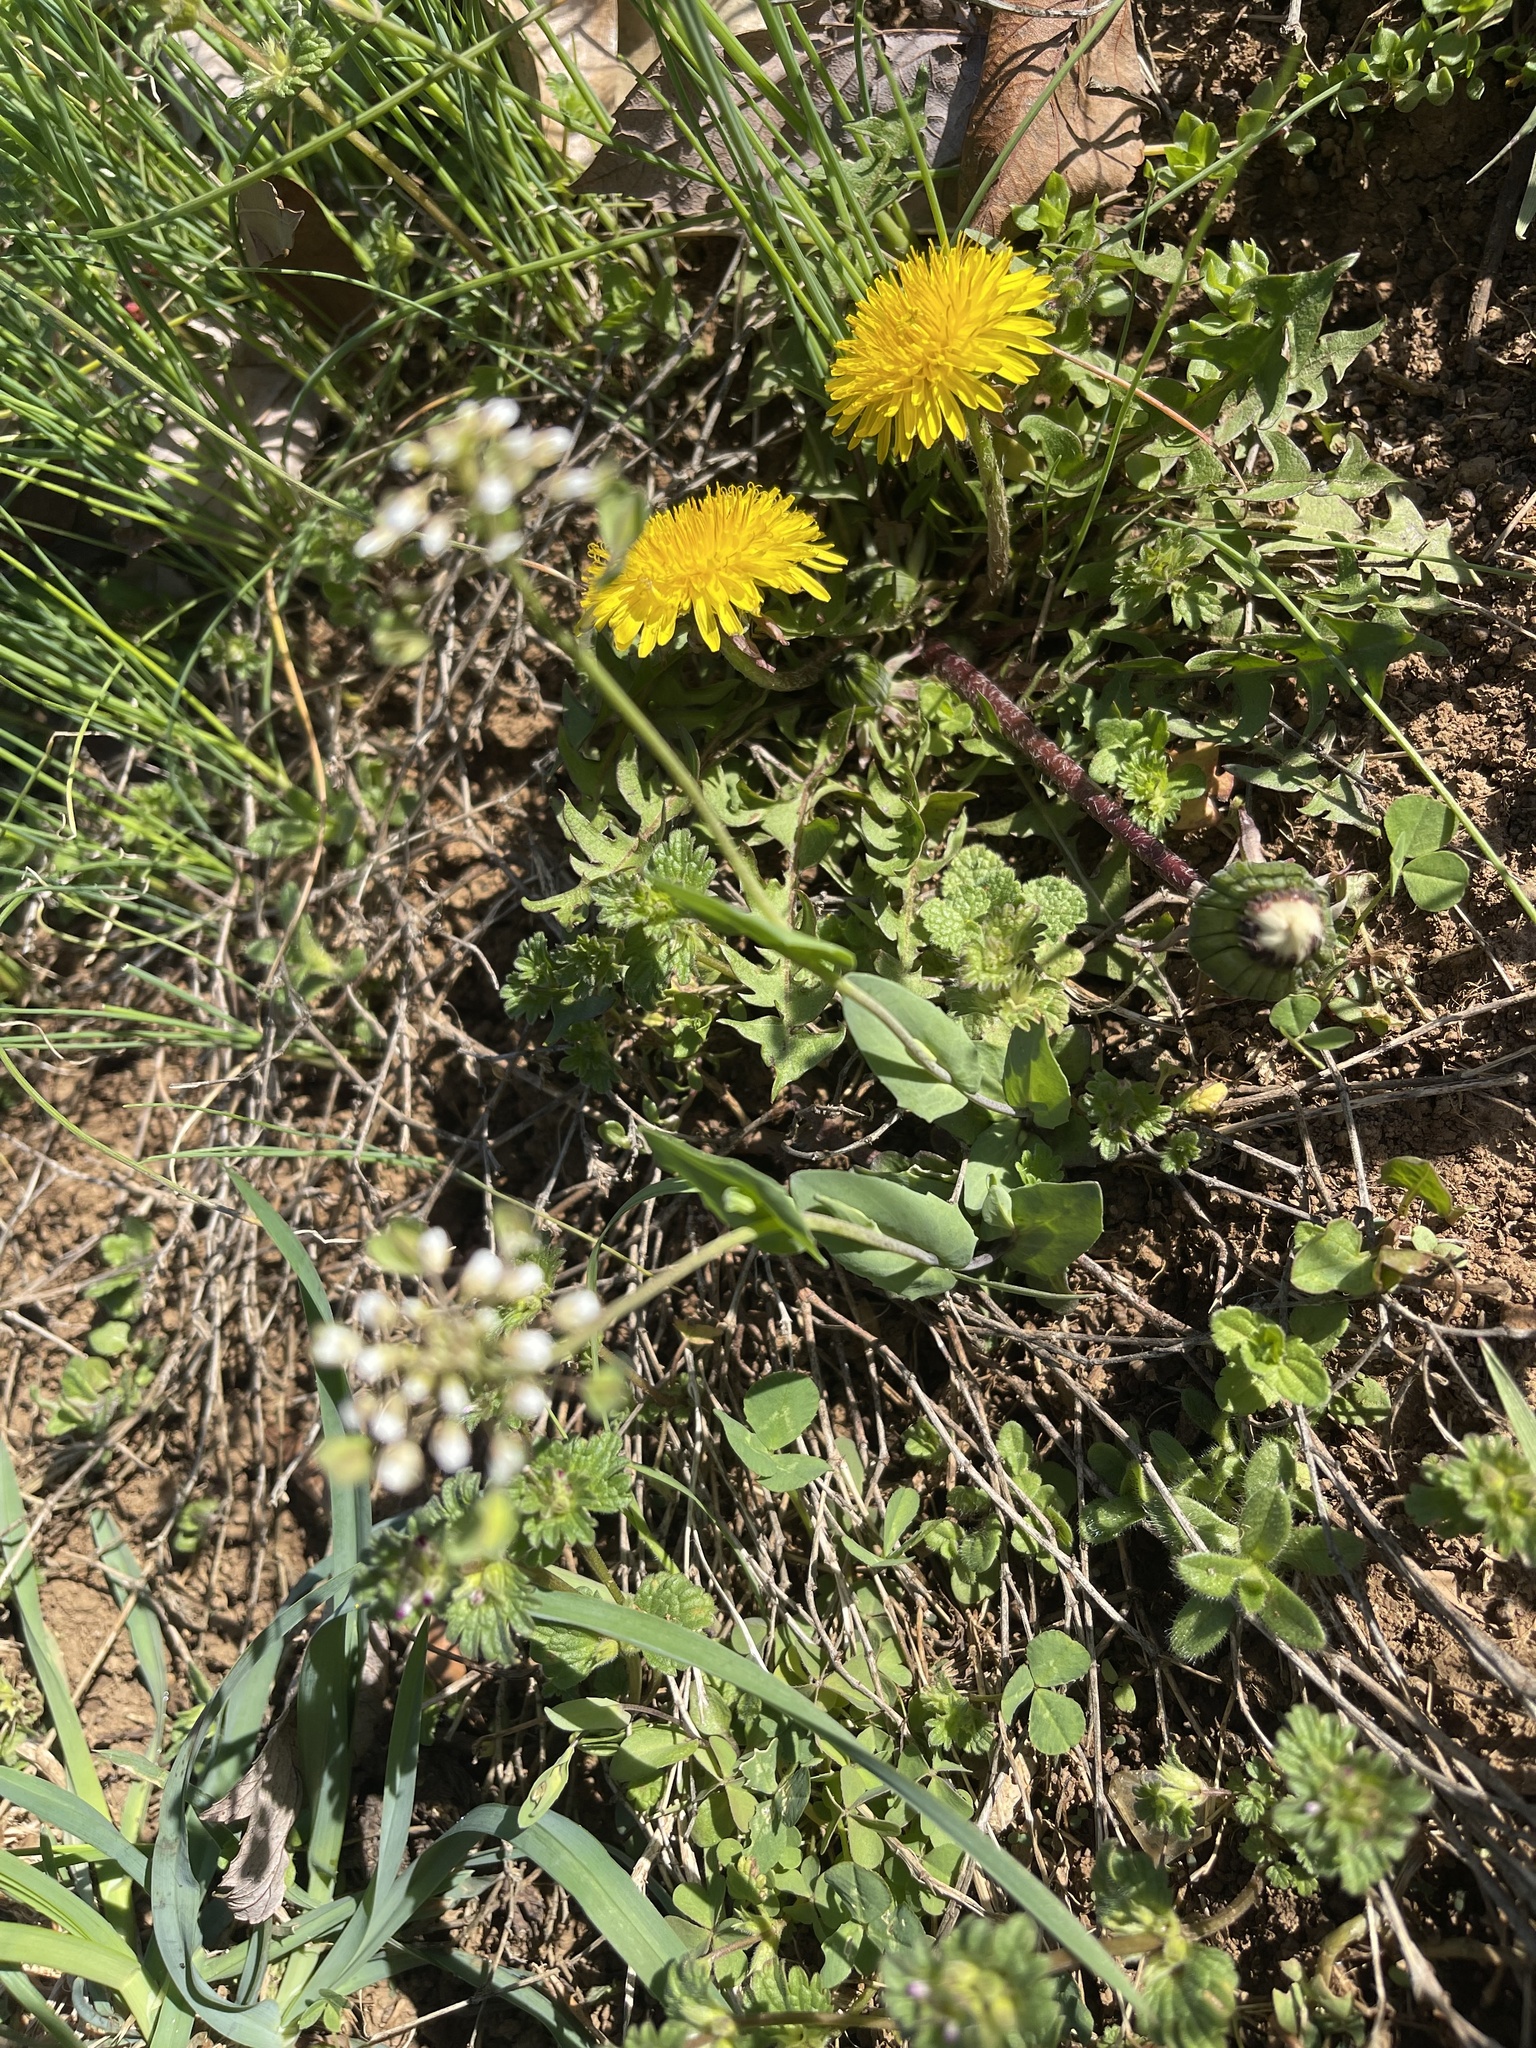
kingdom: Plantae
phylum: Tracheophyta
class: Magnoliopsida
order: Brassicales
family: Brassicaceae
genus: Noccaea
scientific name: Noccaea perfoliata
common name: Perfoliate pennycress
